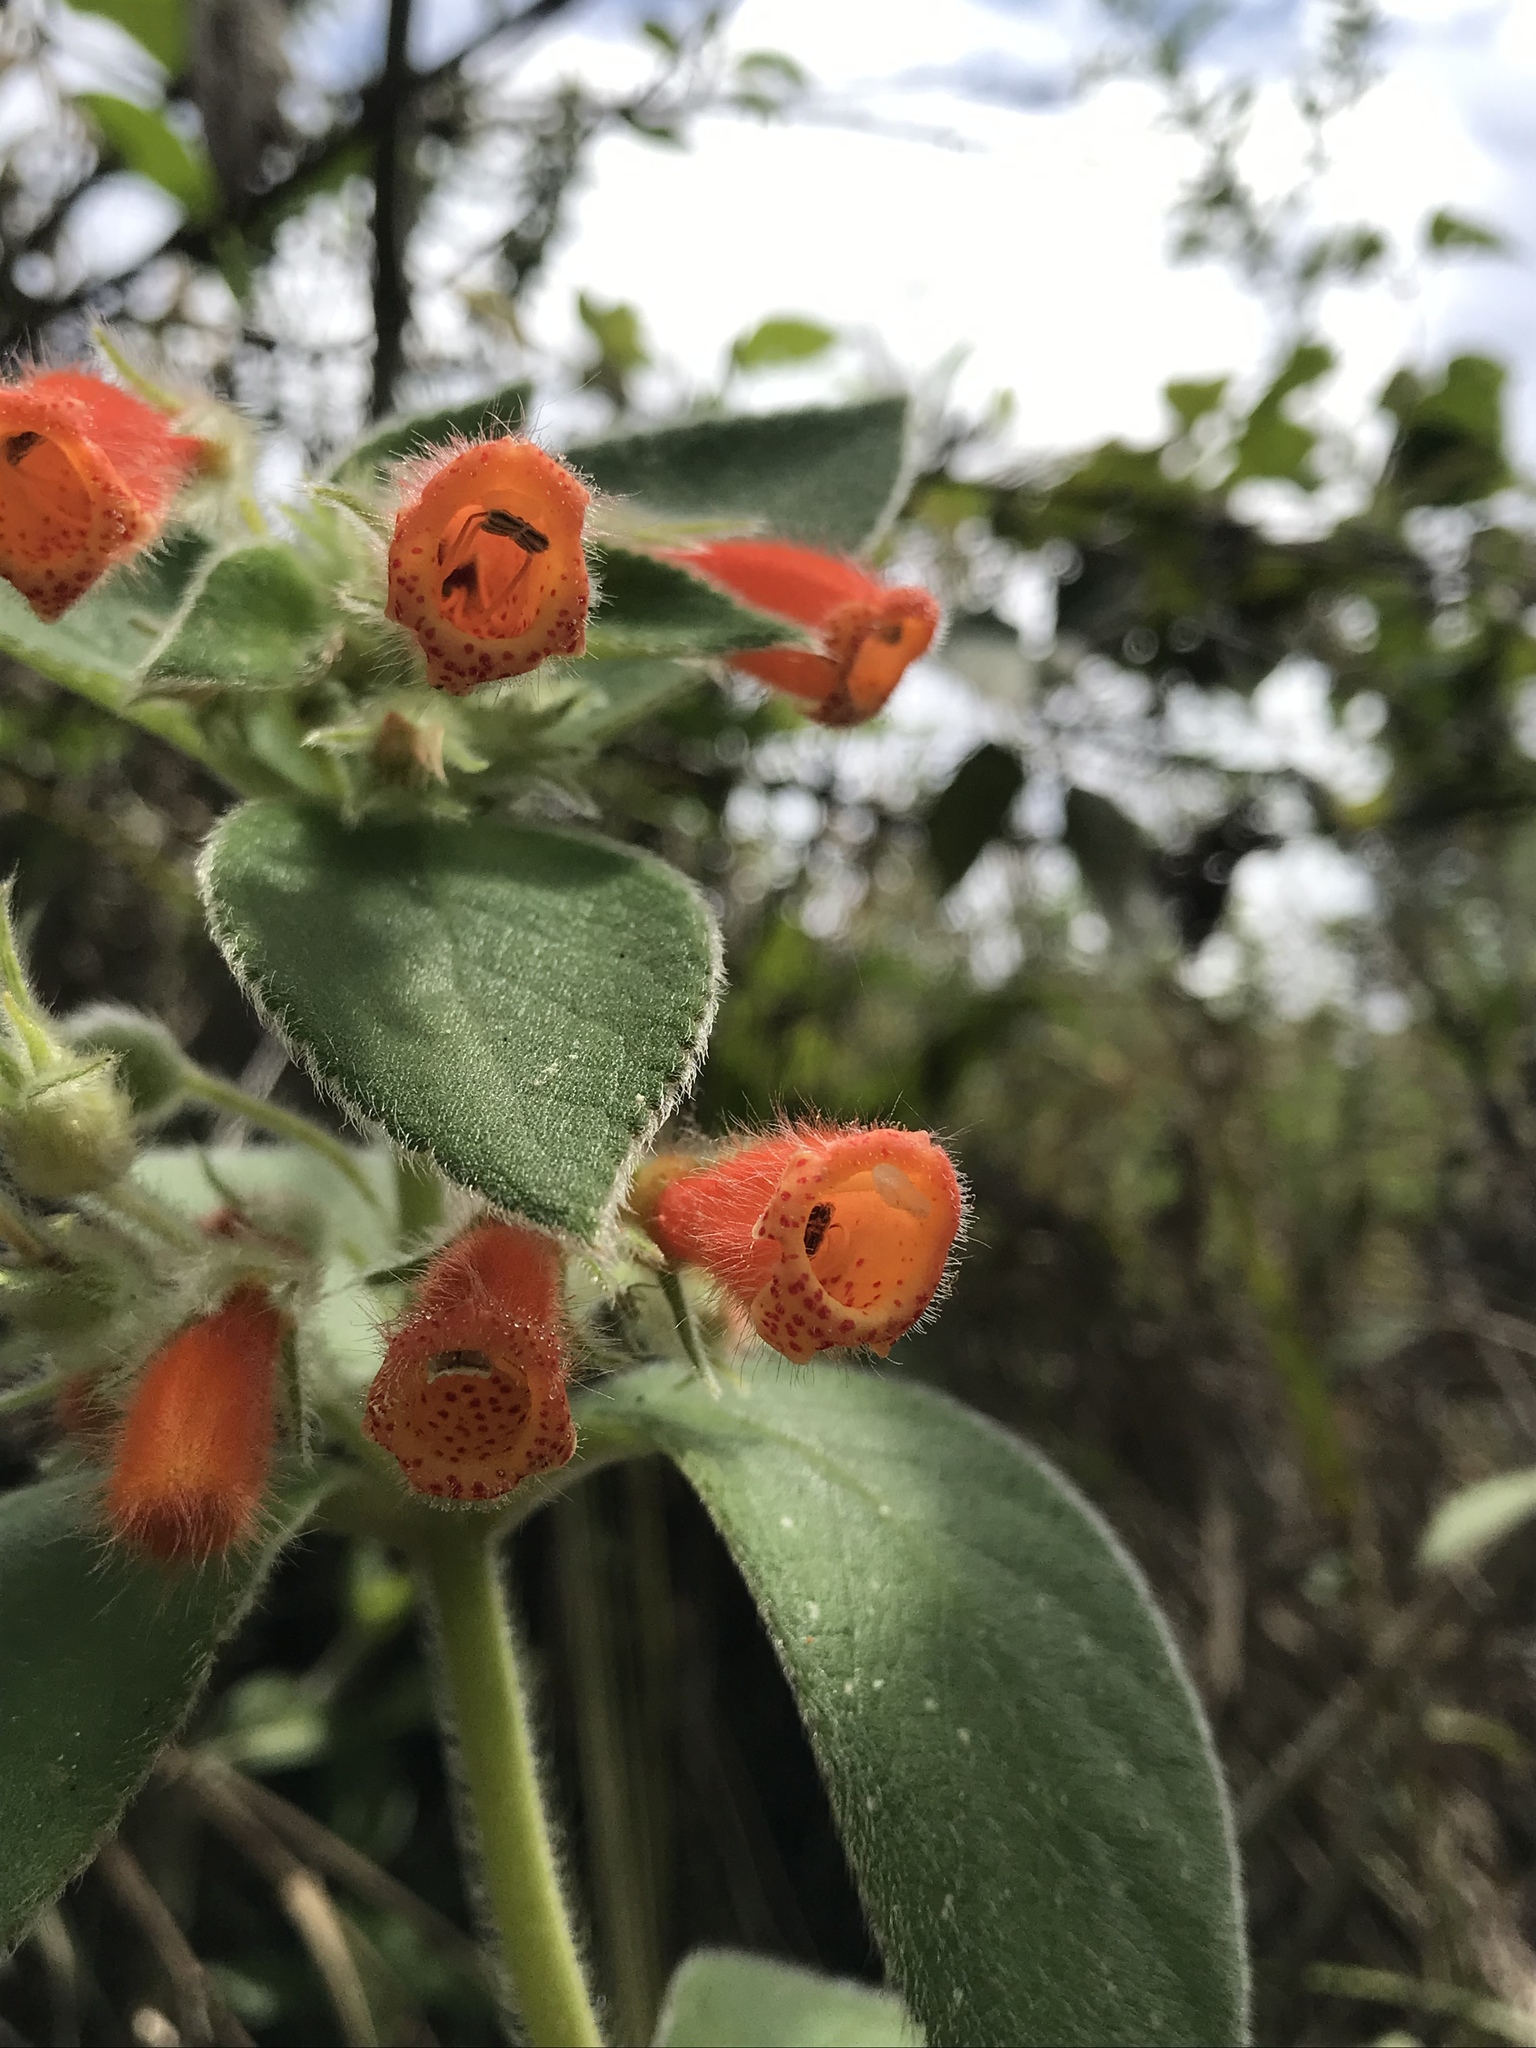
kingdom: Plantae
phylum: Tracheophyta
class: Magnoliopsida
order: Lamiales
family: Gesneriaceae
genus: Kohleria
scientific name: Kohleria hirsuta
